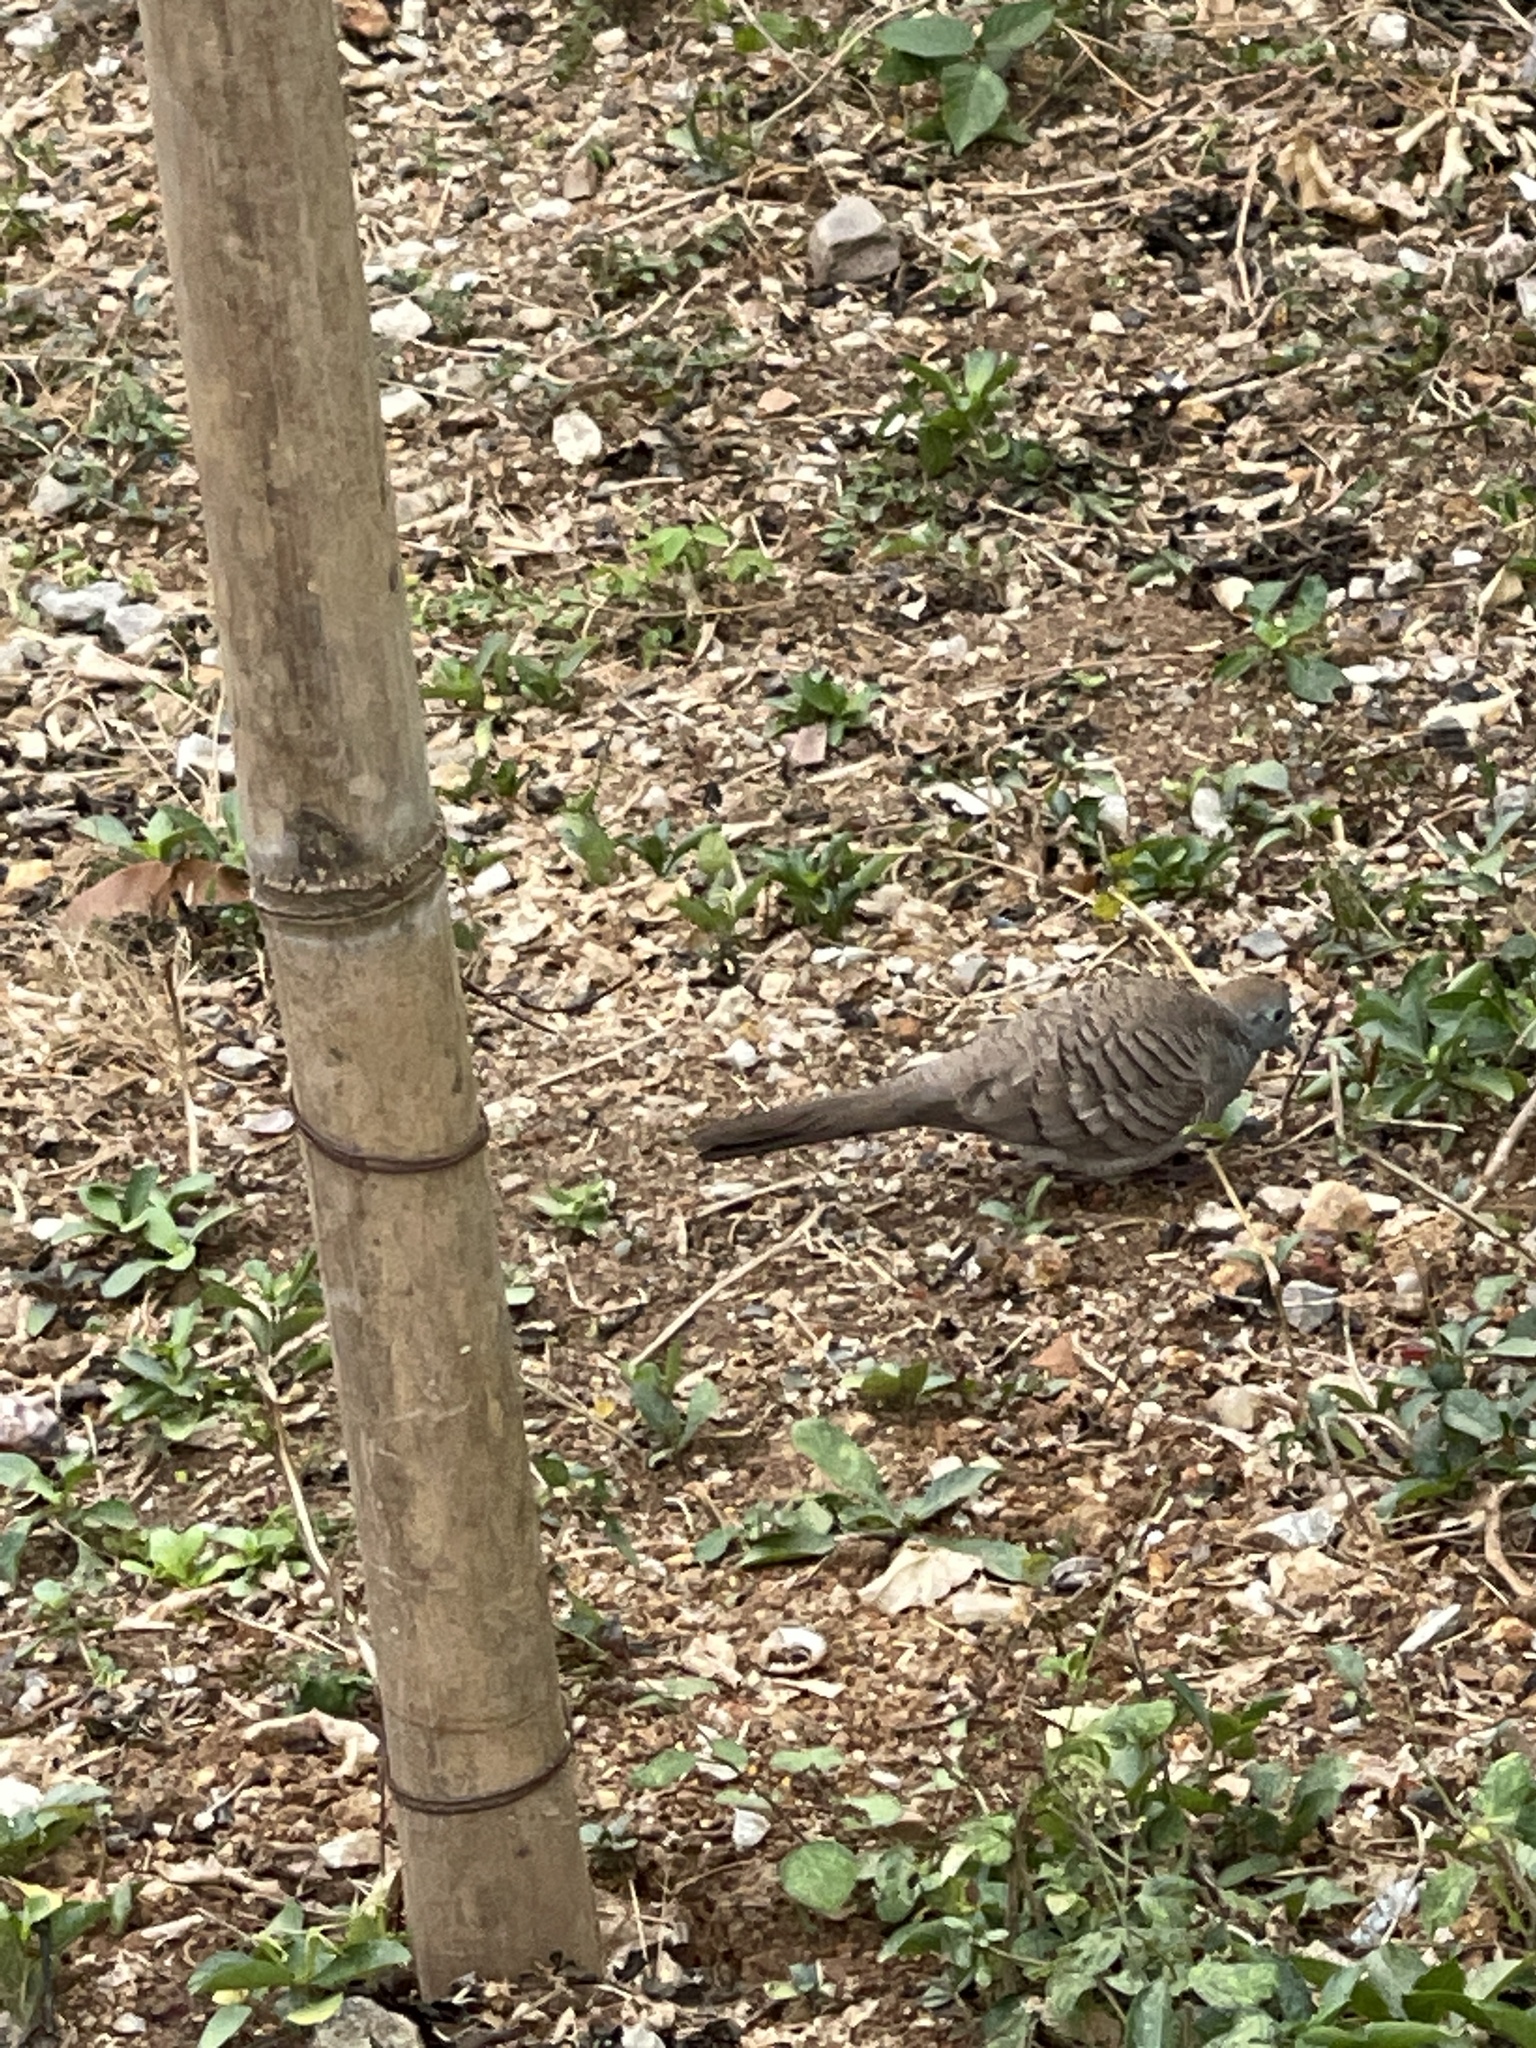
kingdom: Animalia
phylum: Chordata
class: Aves
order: Columbiformes
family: Columbidae
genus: Geopelia
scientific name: Geopelia striata
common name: Zebra dove
